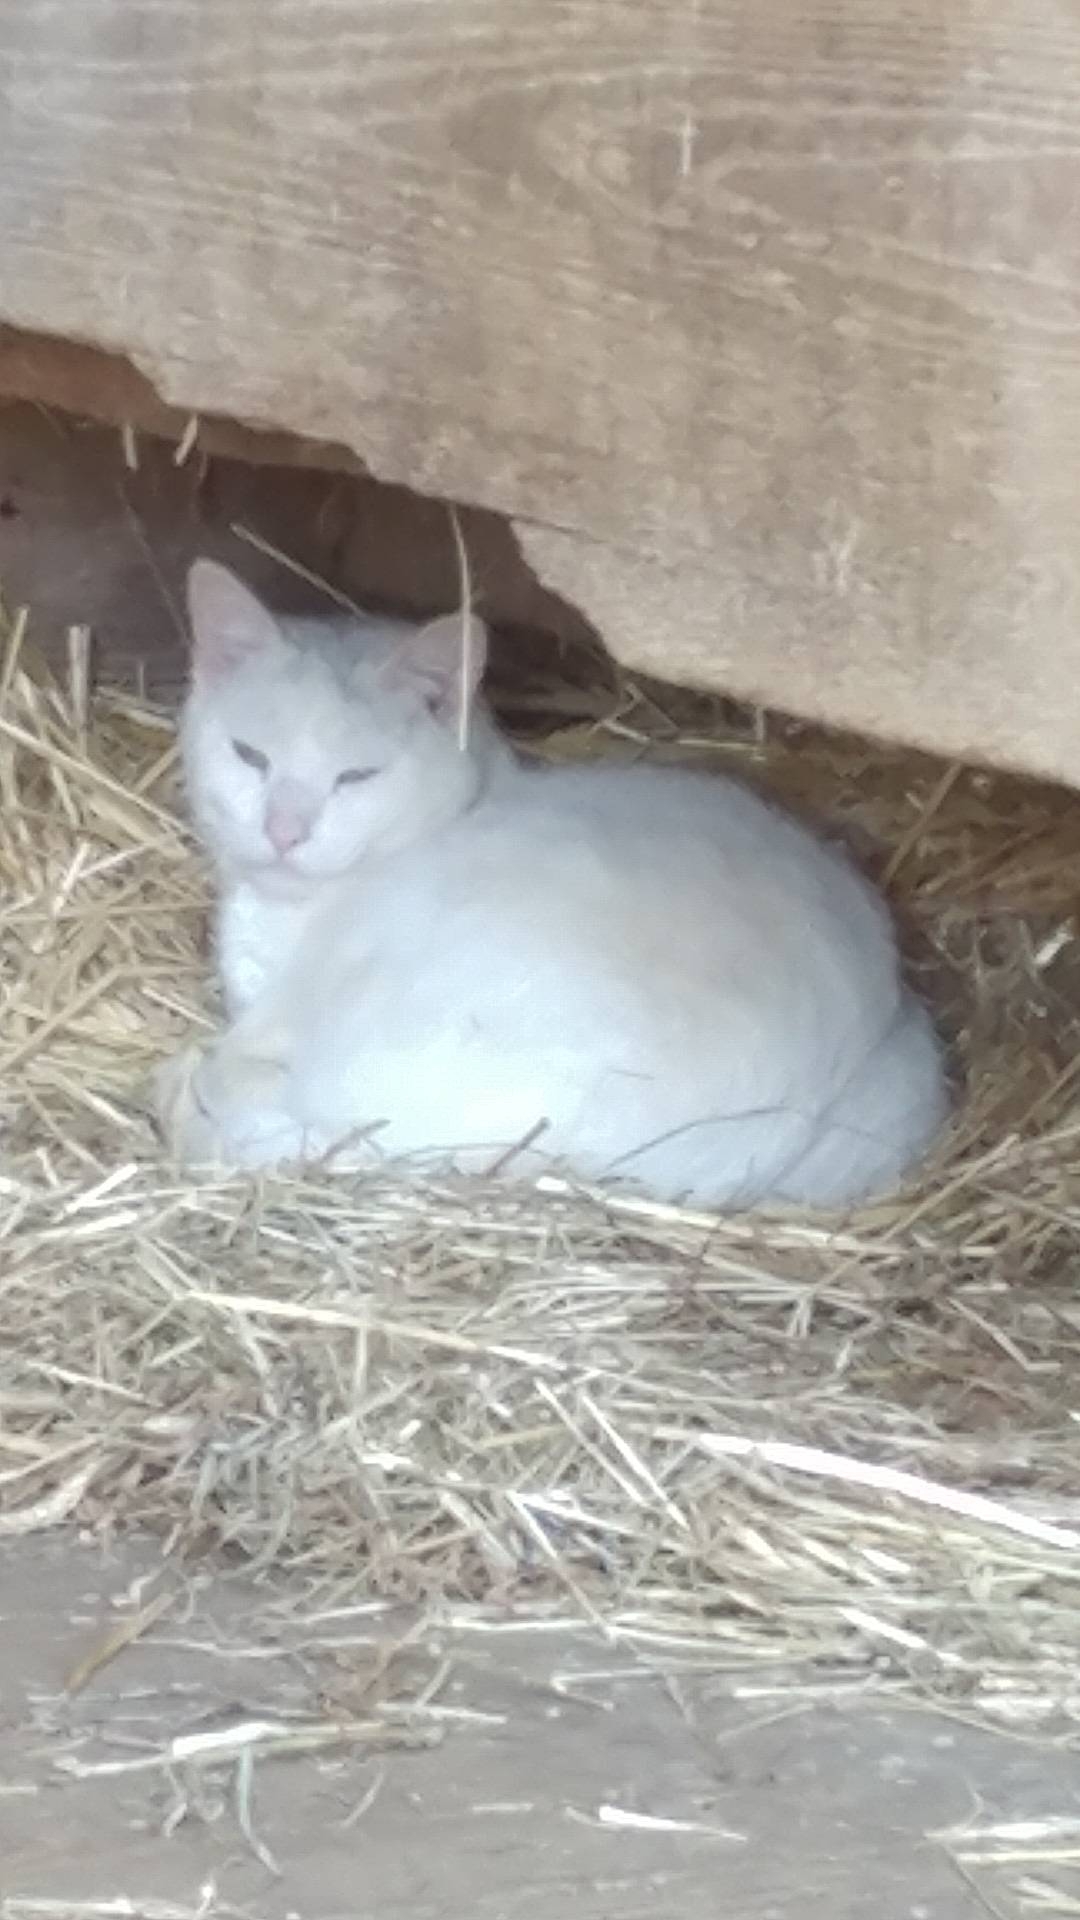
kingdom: Animalia
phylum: Chordata
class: Mammalia
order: Carnivora
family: Felidae
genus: Felis
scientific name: Felis catus
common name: Domestic cat
